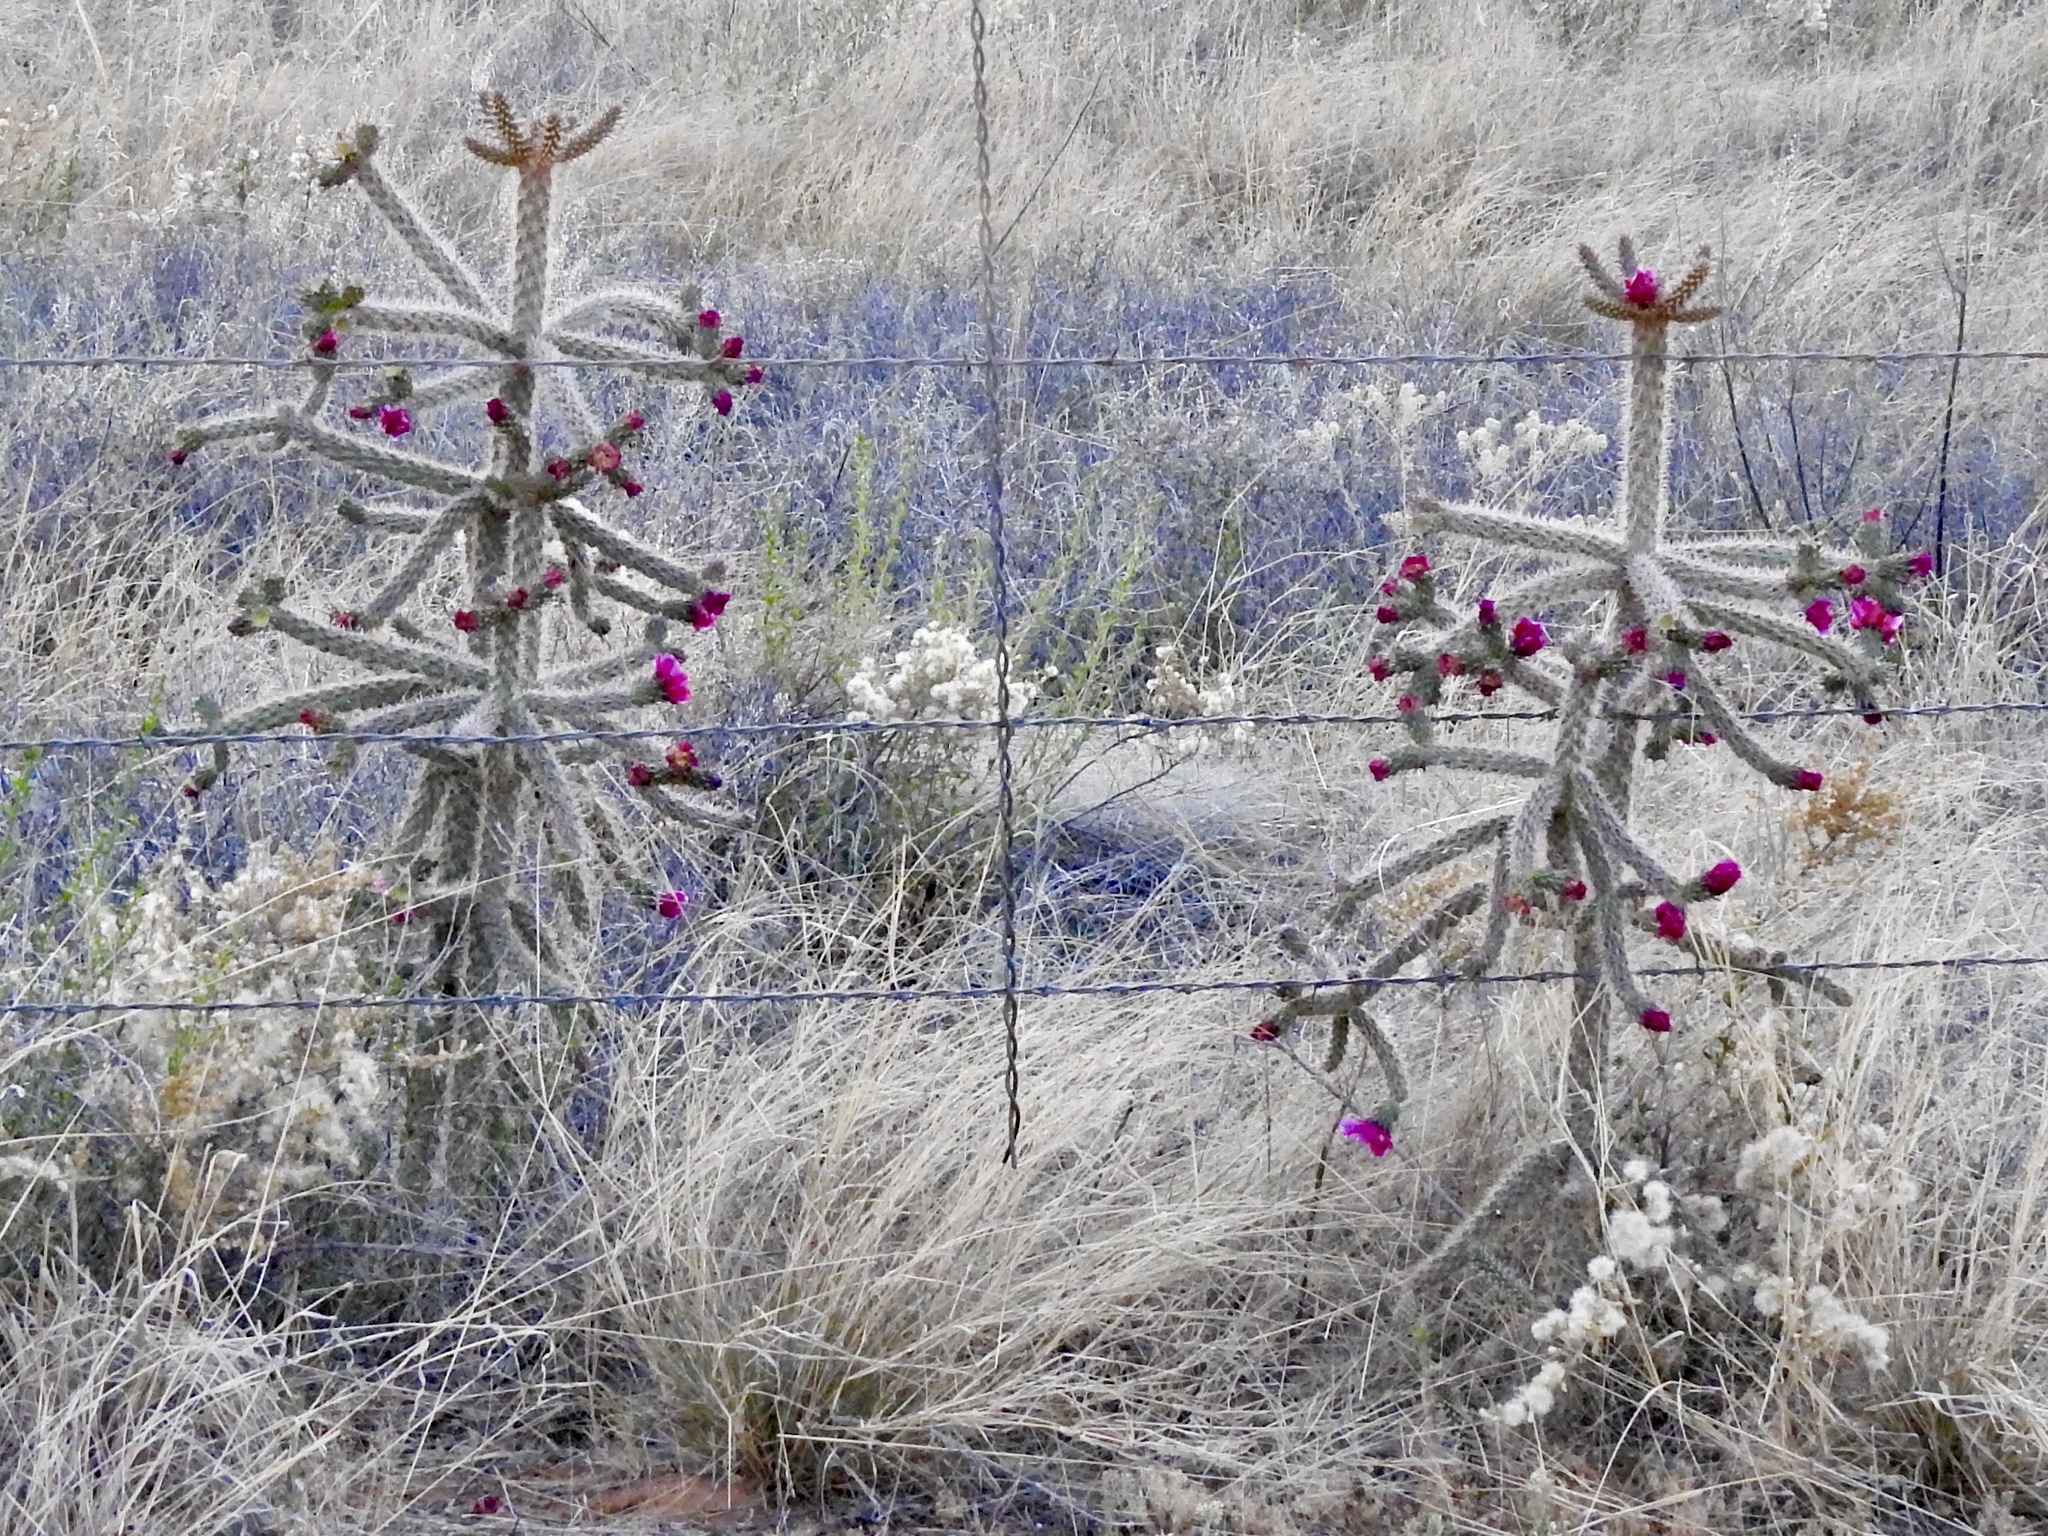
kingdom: Plantae
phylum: Tracheophyta
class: Magnoliopsida
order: Caryophyllales
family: Cactaceae
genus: Cylindropuntia
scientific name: Cylindropuntia imbricata
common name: Candelabrum cactus
